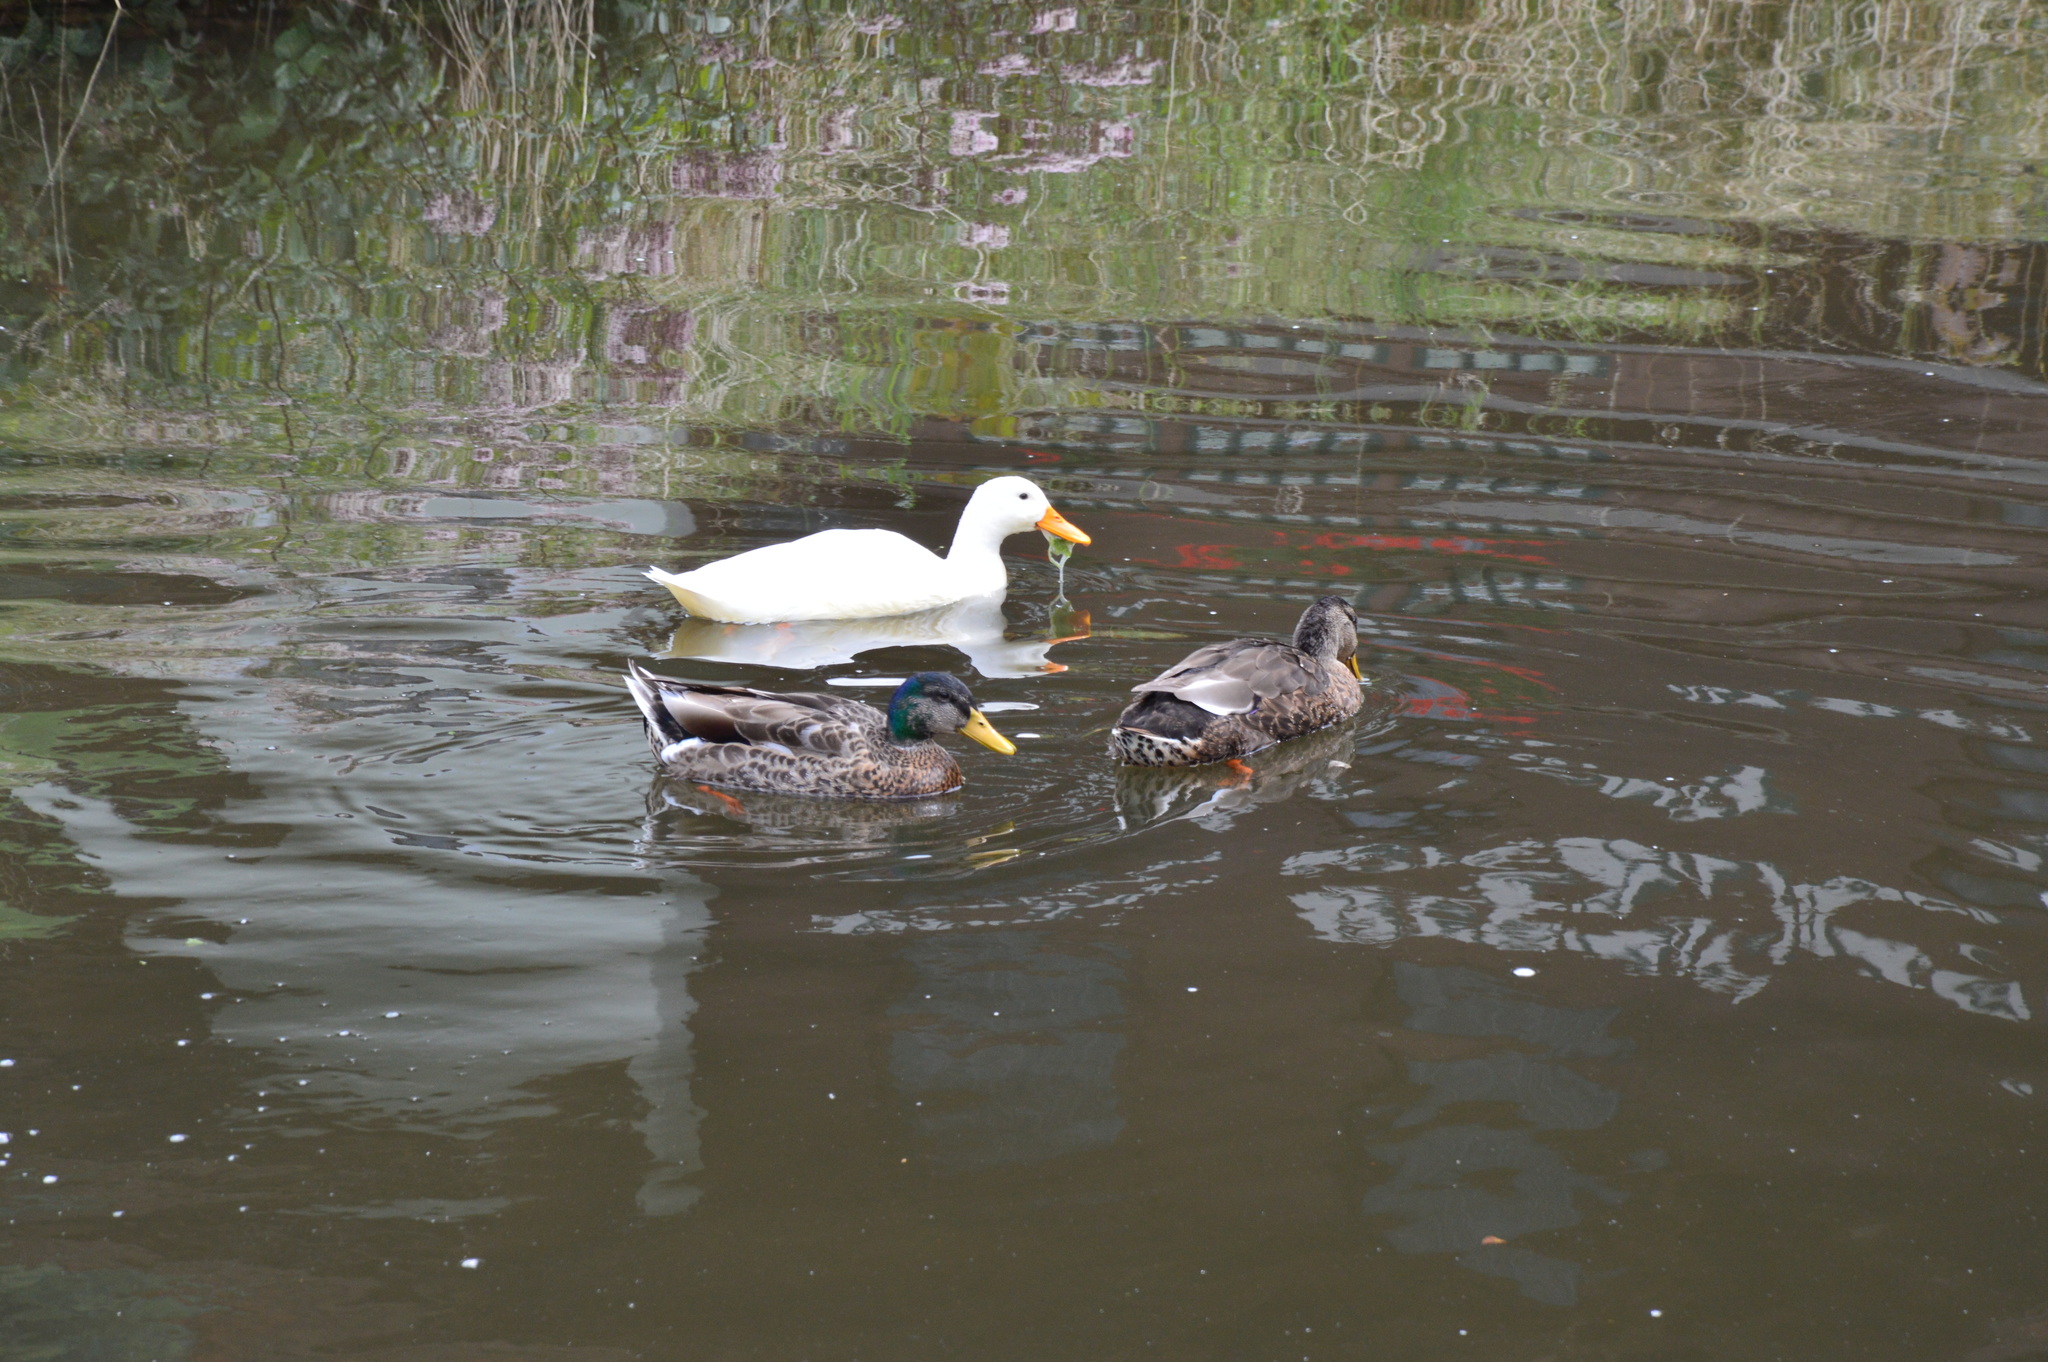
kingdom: Animalia
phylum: Chordata
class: Aves
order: Anseriformes
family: Anatidae
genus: Anas
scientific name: Anas platyrhynchos
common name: Mallard
